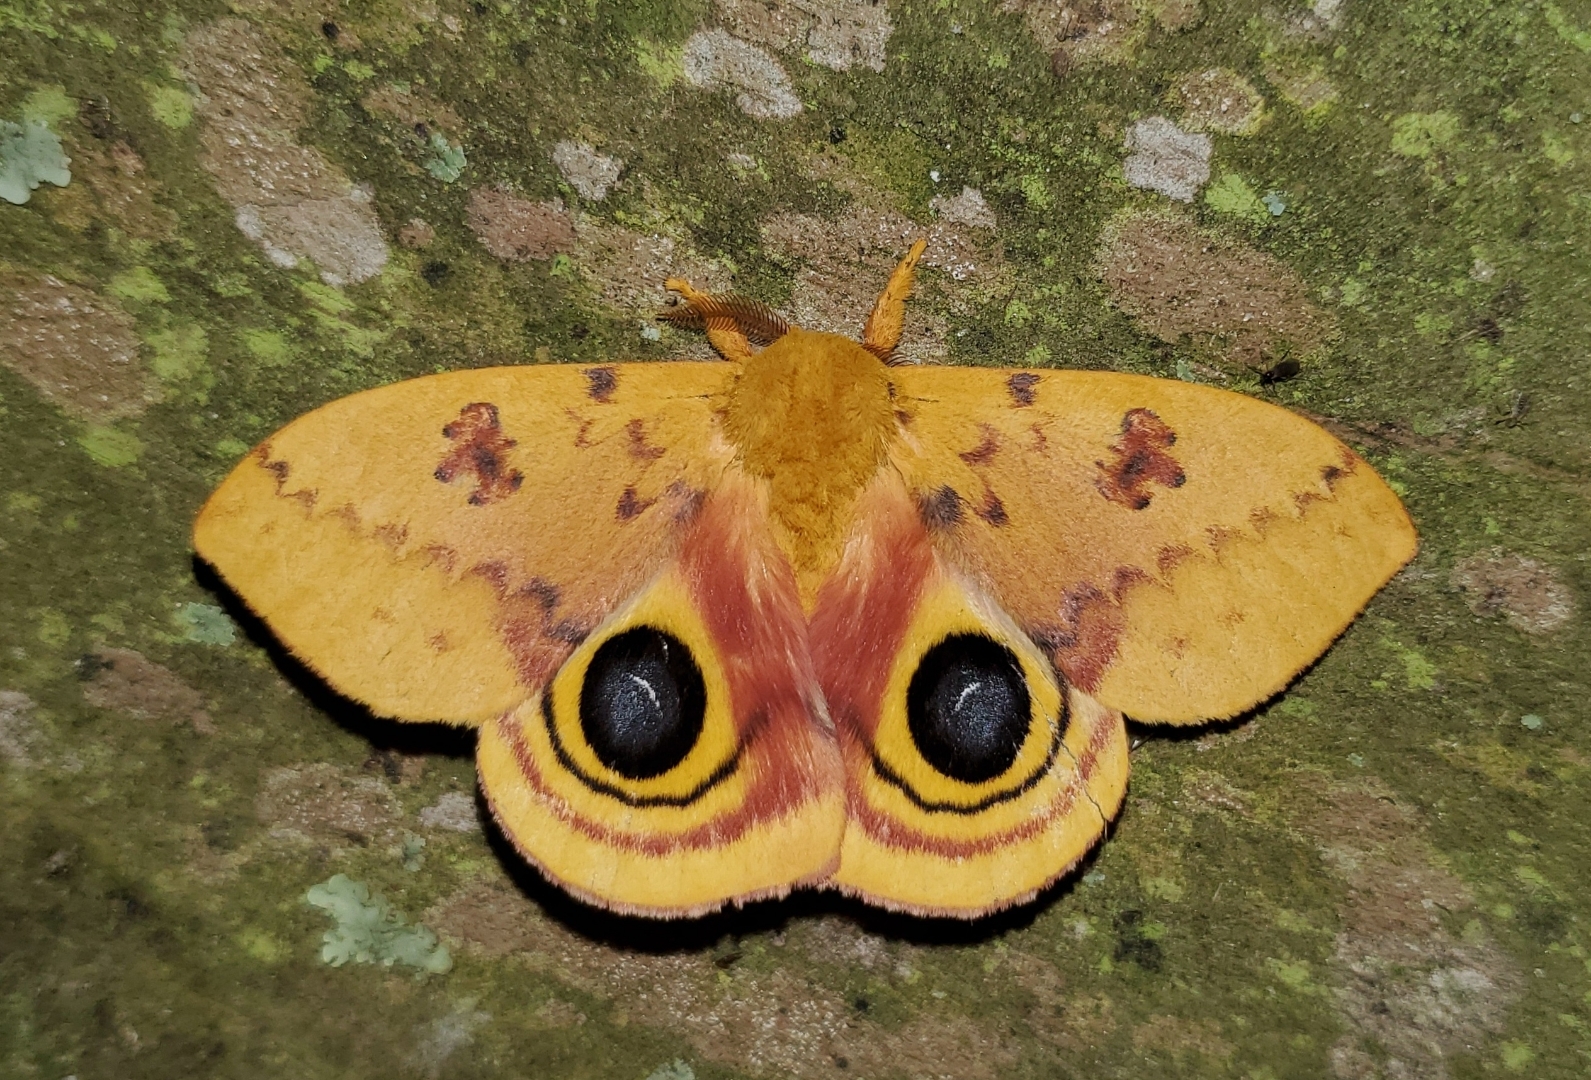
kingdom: Animalia
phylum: Arthropoda
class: Insecta
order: Lepidoptera
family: Saturniidae
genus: Automeris
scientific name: Automeris io
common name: Io moth
